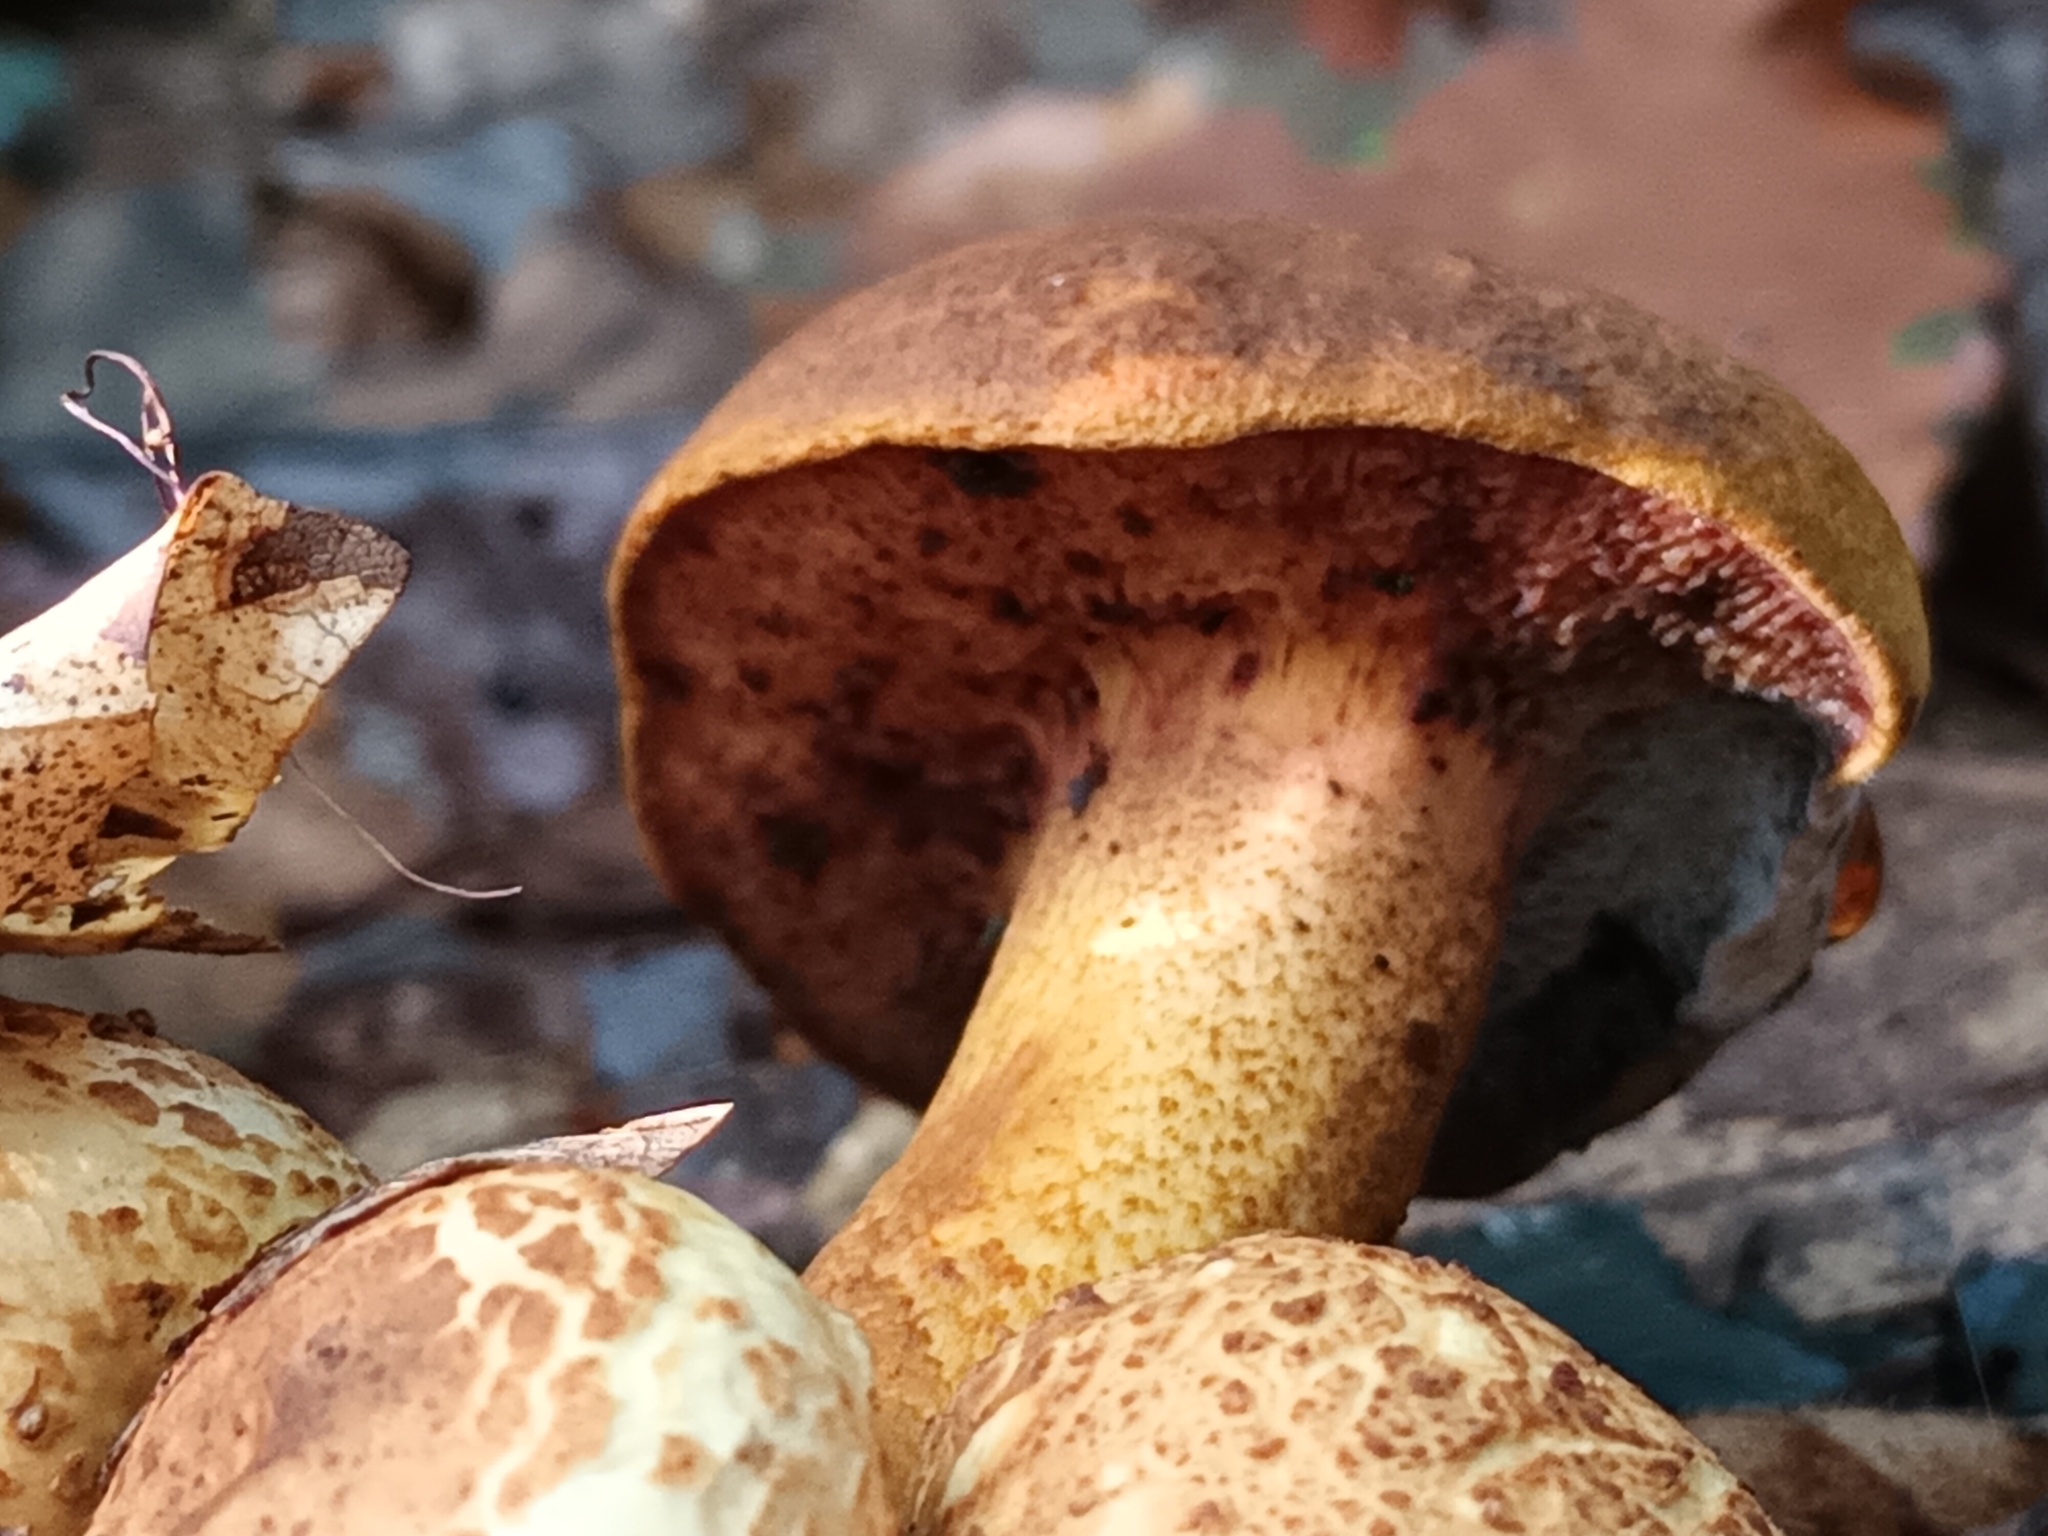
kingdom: Fungi
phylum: Basidiomycota
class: Agaricomycetes
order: Boletales
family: Boletaceae
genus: Pseudoboletus
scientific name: Pseudoboletus parasiticus
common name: Parasitic bolete
